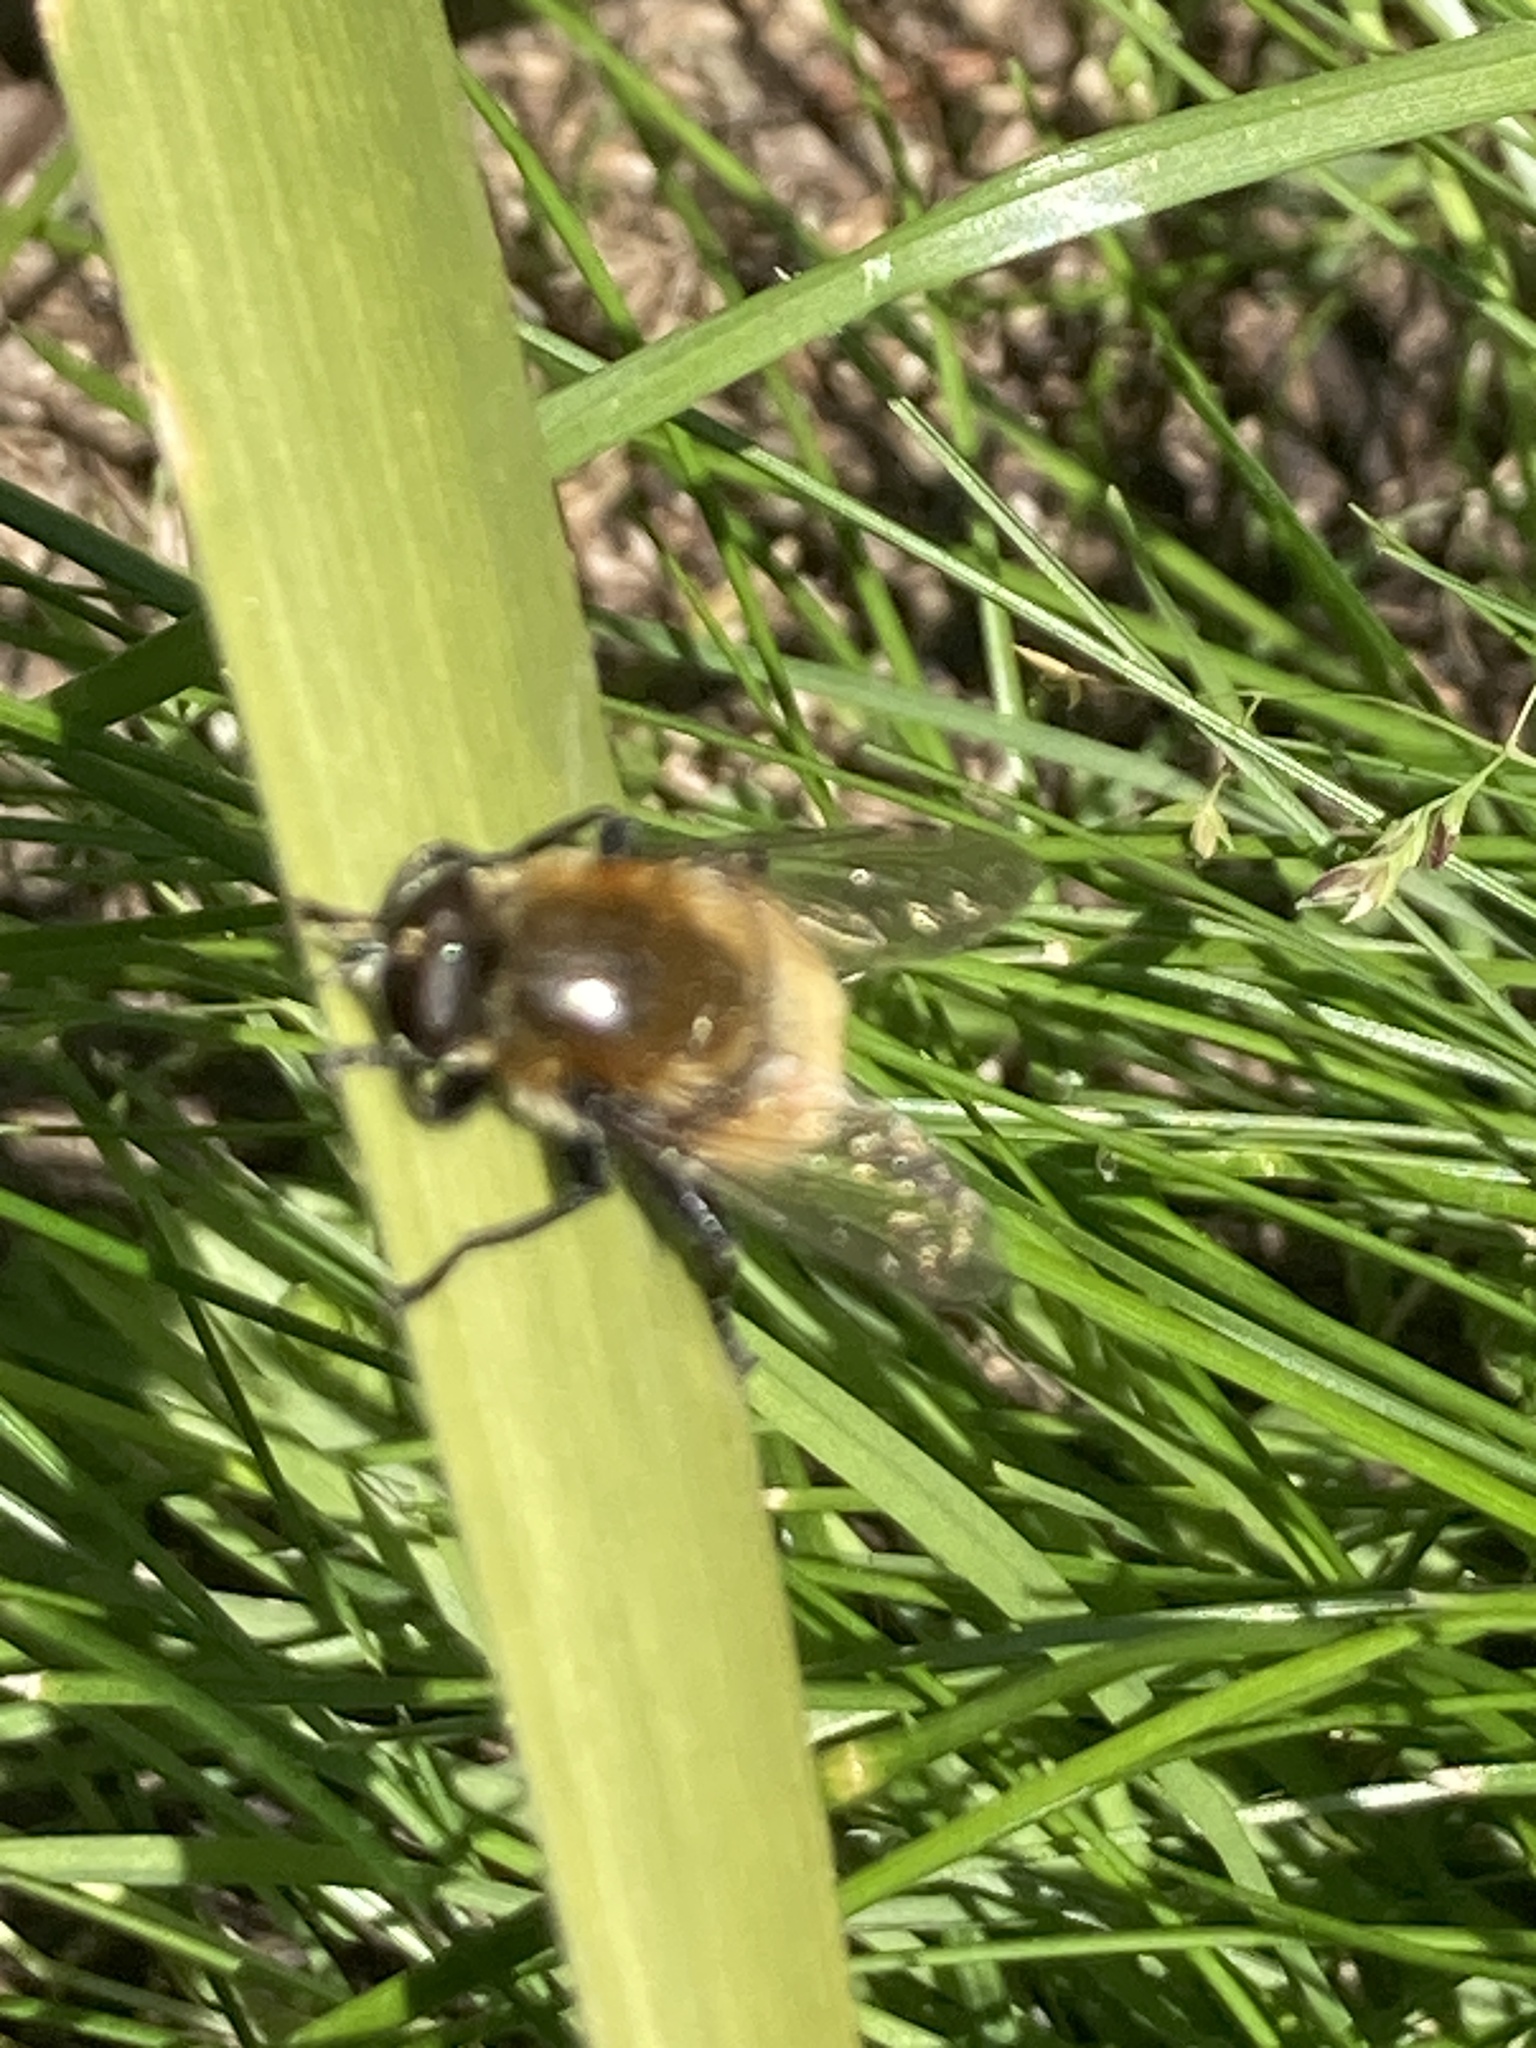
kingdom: Animalia
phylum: Arthropoda
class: Insecta
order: Diptera
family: Syrphidae
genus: Merodon
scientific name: Merodon equestris
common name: Greater bulb-fly
